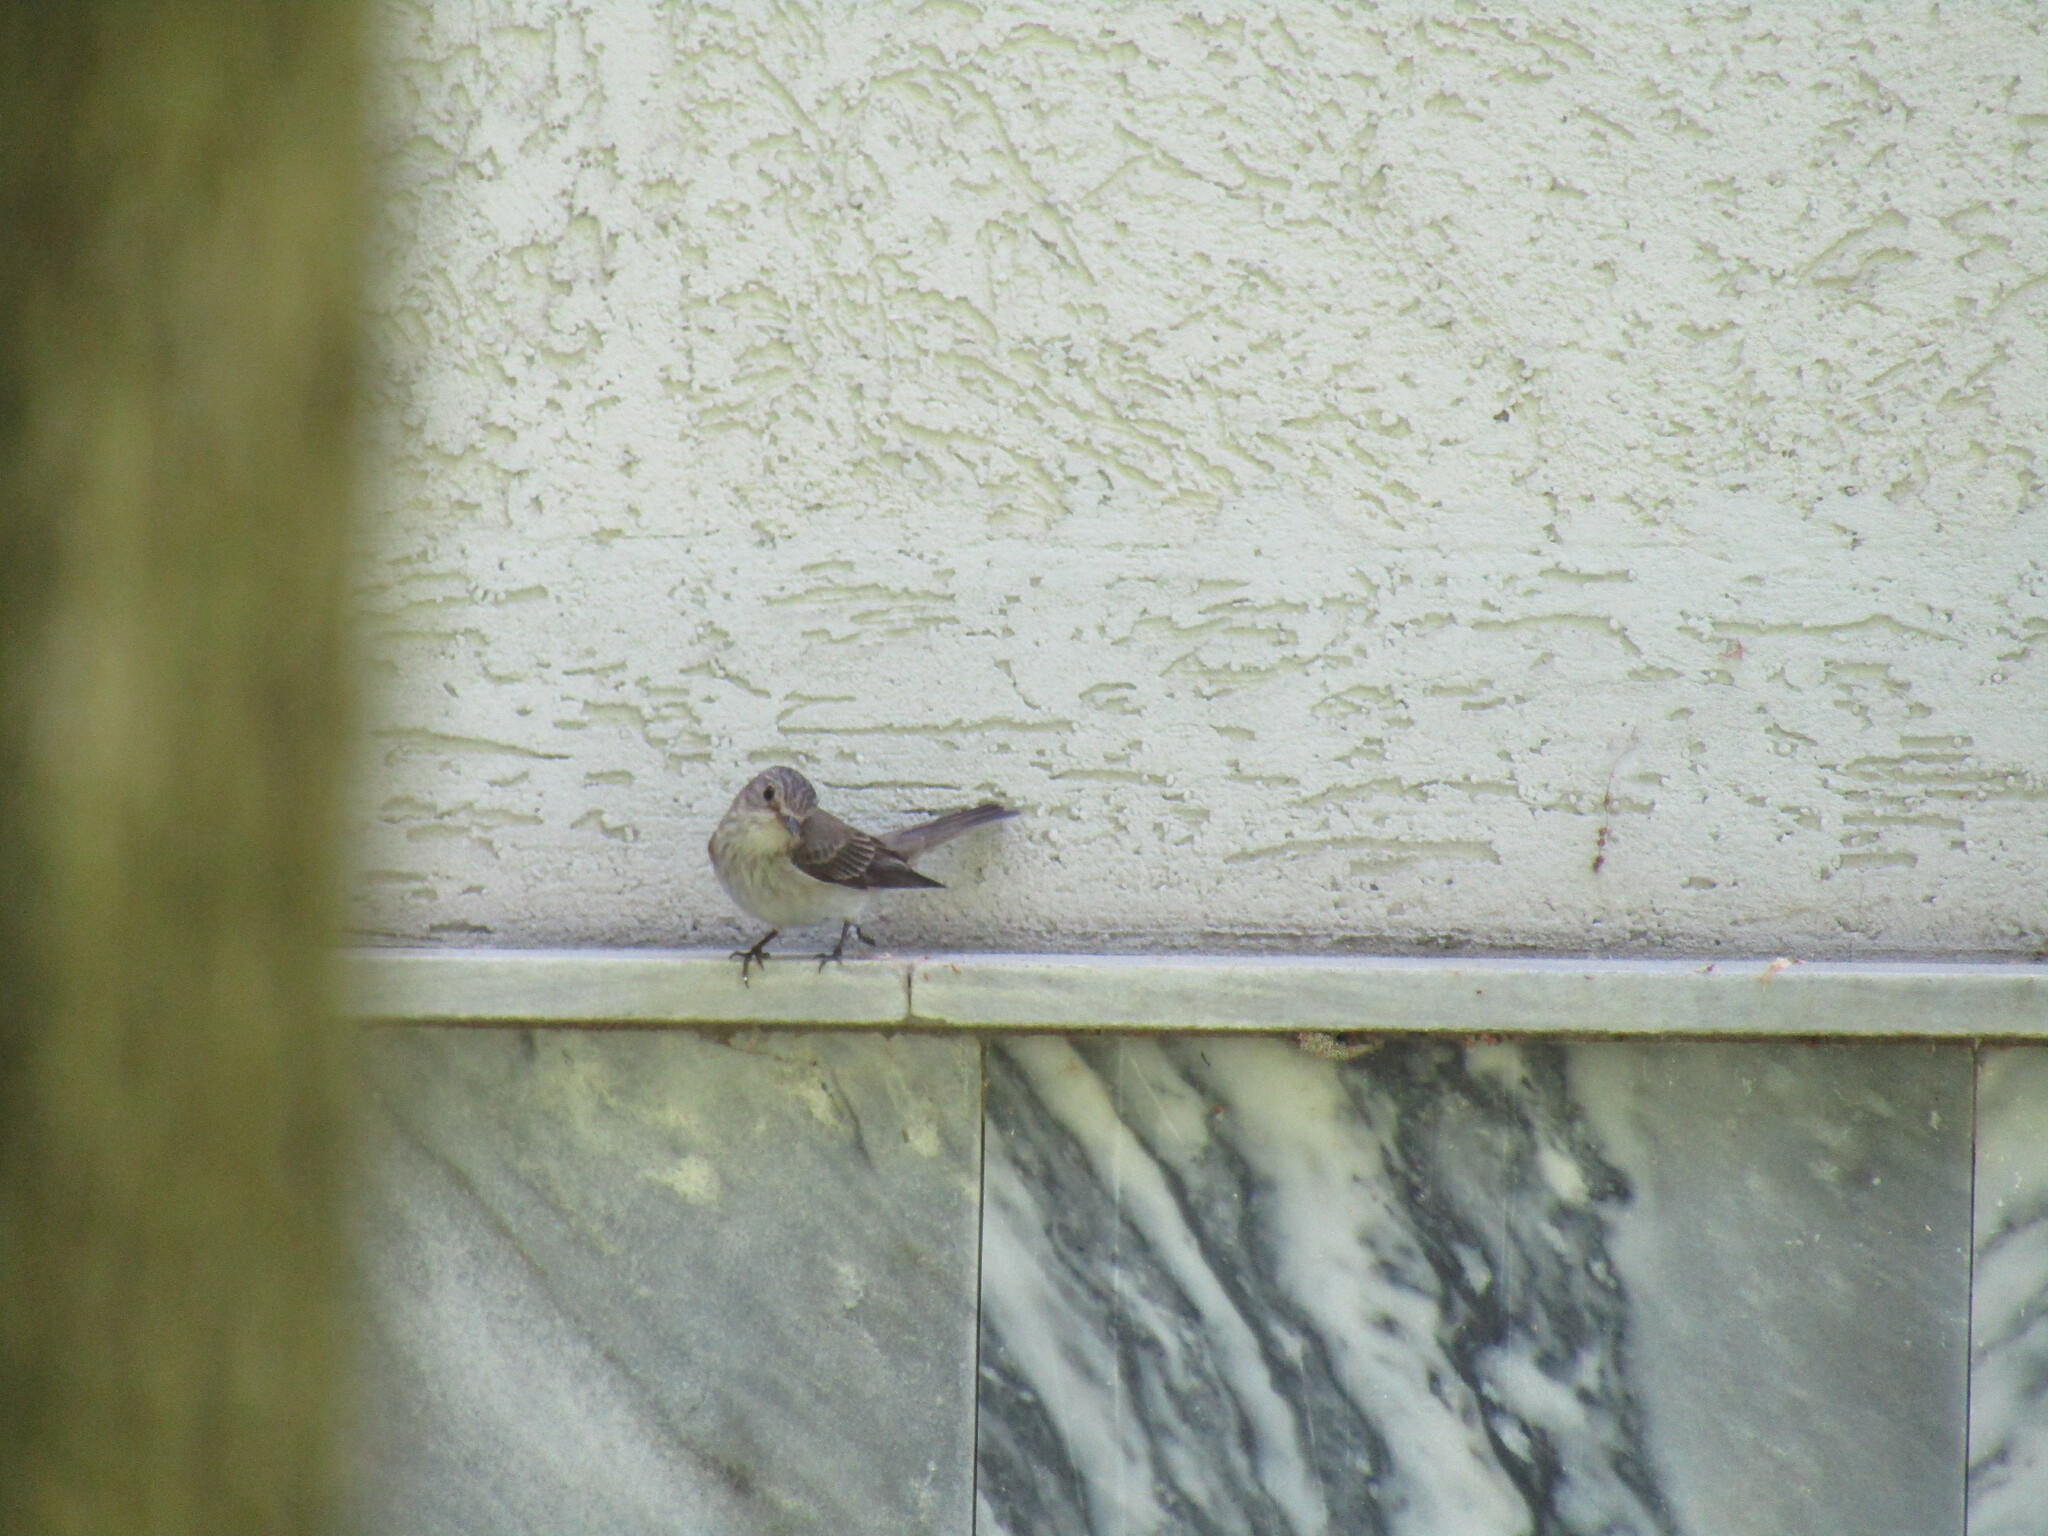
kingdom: Animalia
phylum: Chordata
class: Aves
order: Passeriformes
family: Muscicapidae
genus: Muscicapa
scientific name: Muscicapa striata
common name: Spotted flycatcher
